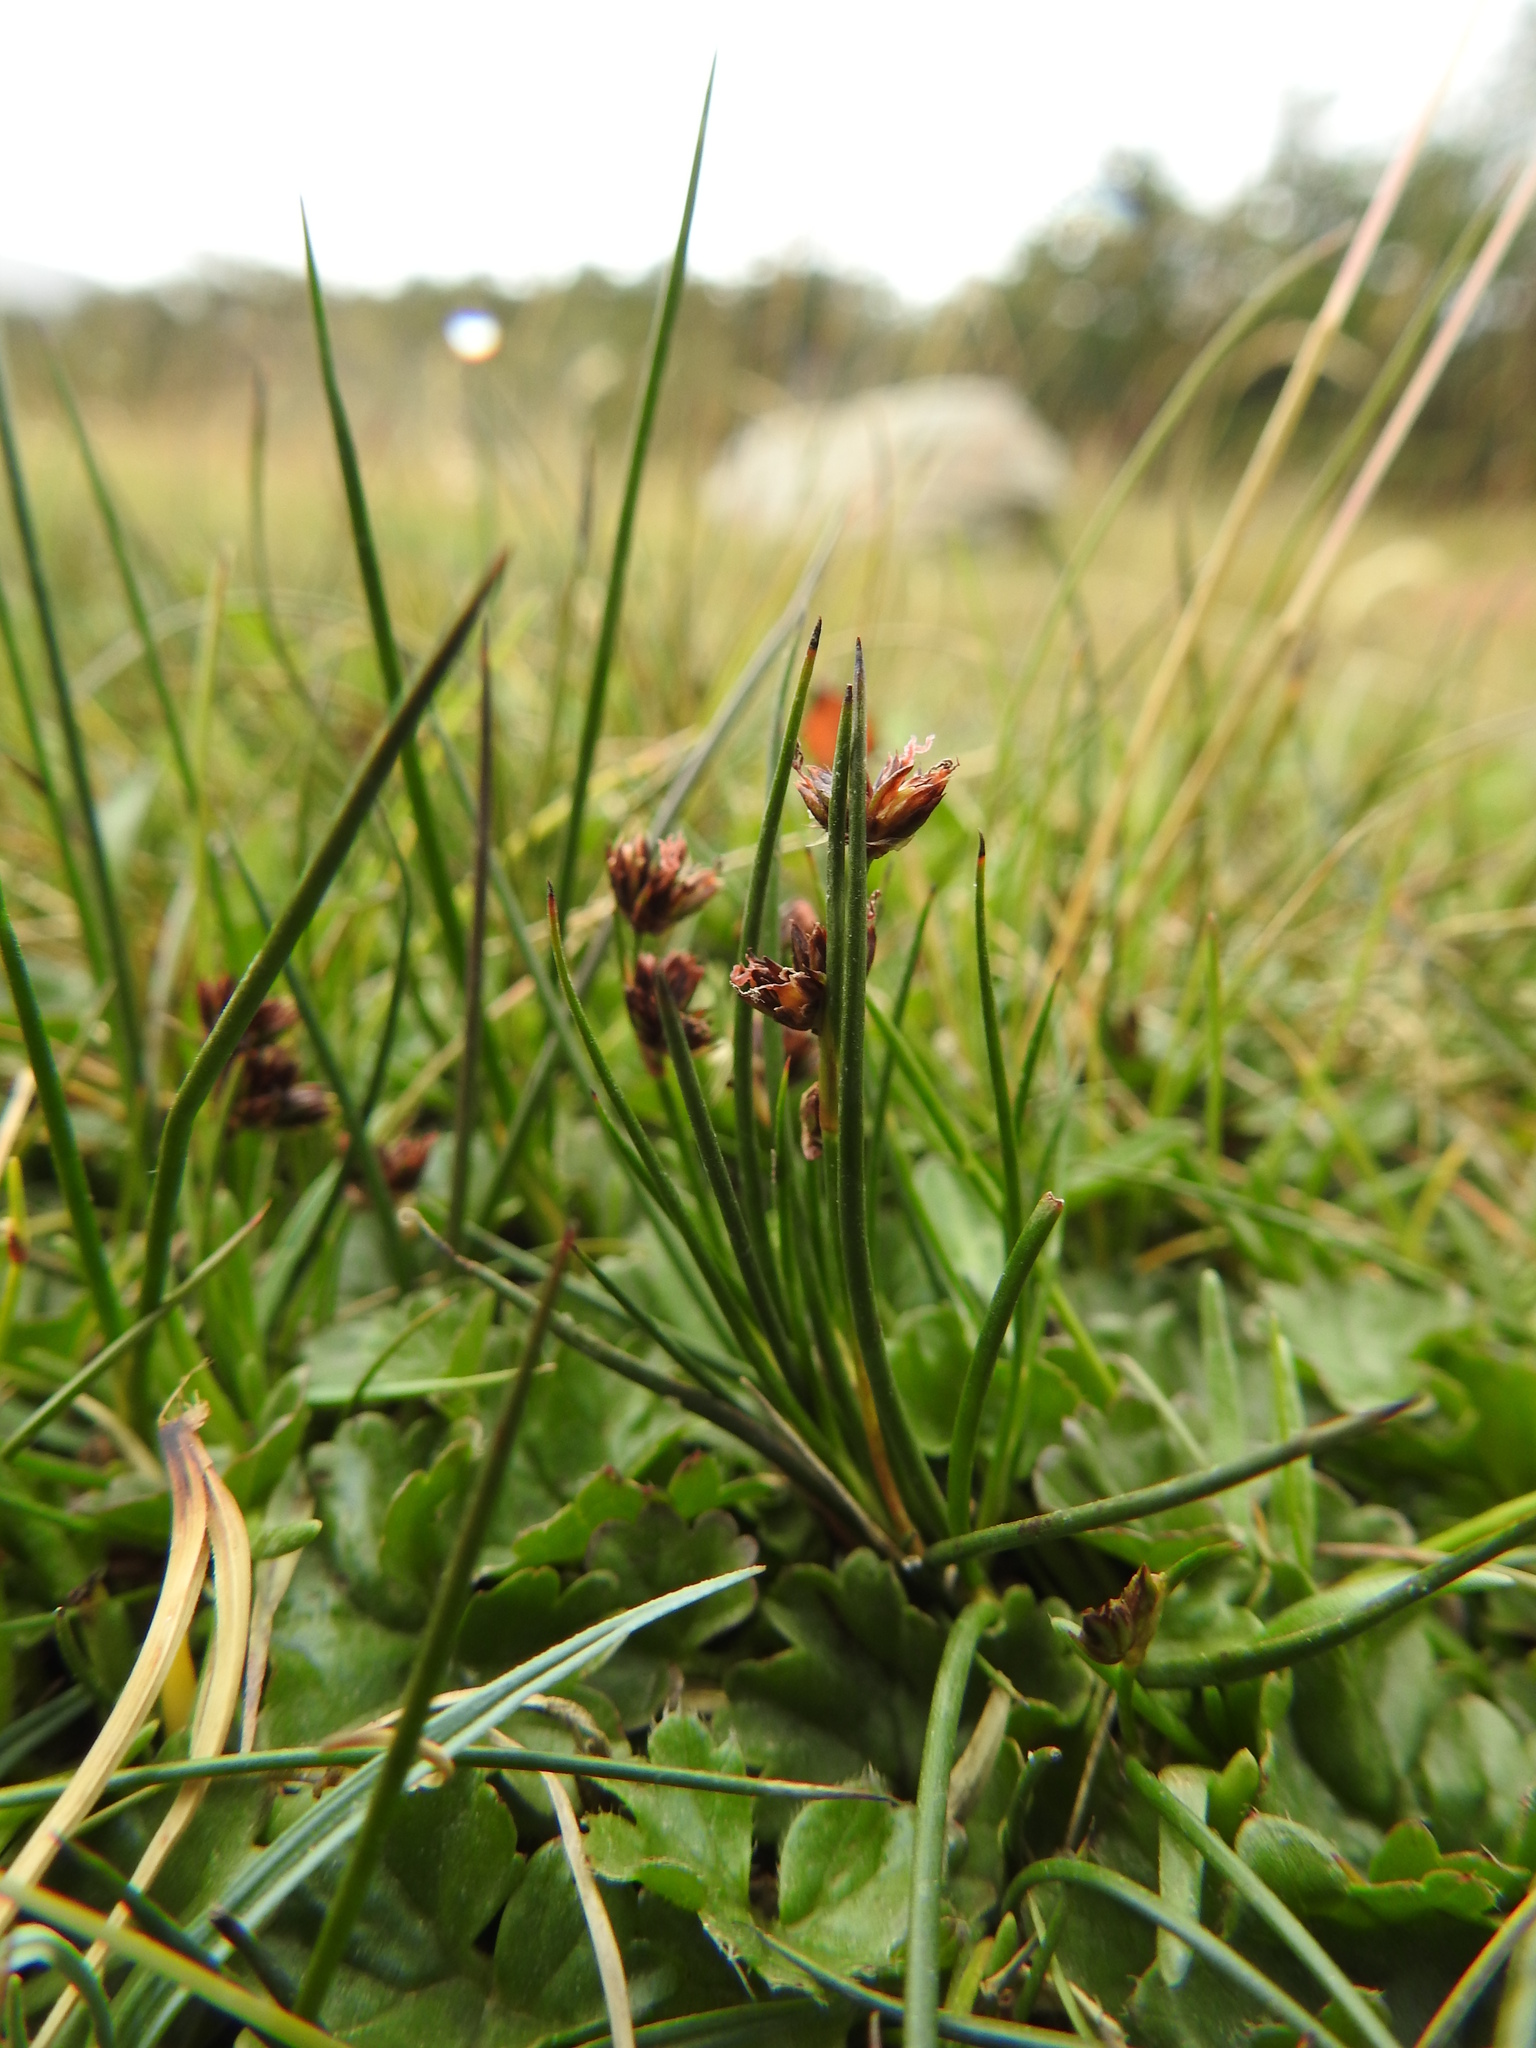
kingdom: Plantae
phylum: Tracheophyta
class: Liliopsida
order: Poales
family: Juncaceae
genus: Juncus
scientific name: Juncus scheuchzerioides
